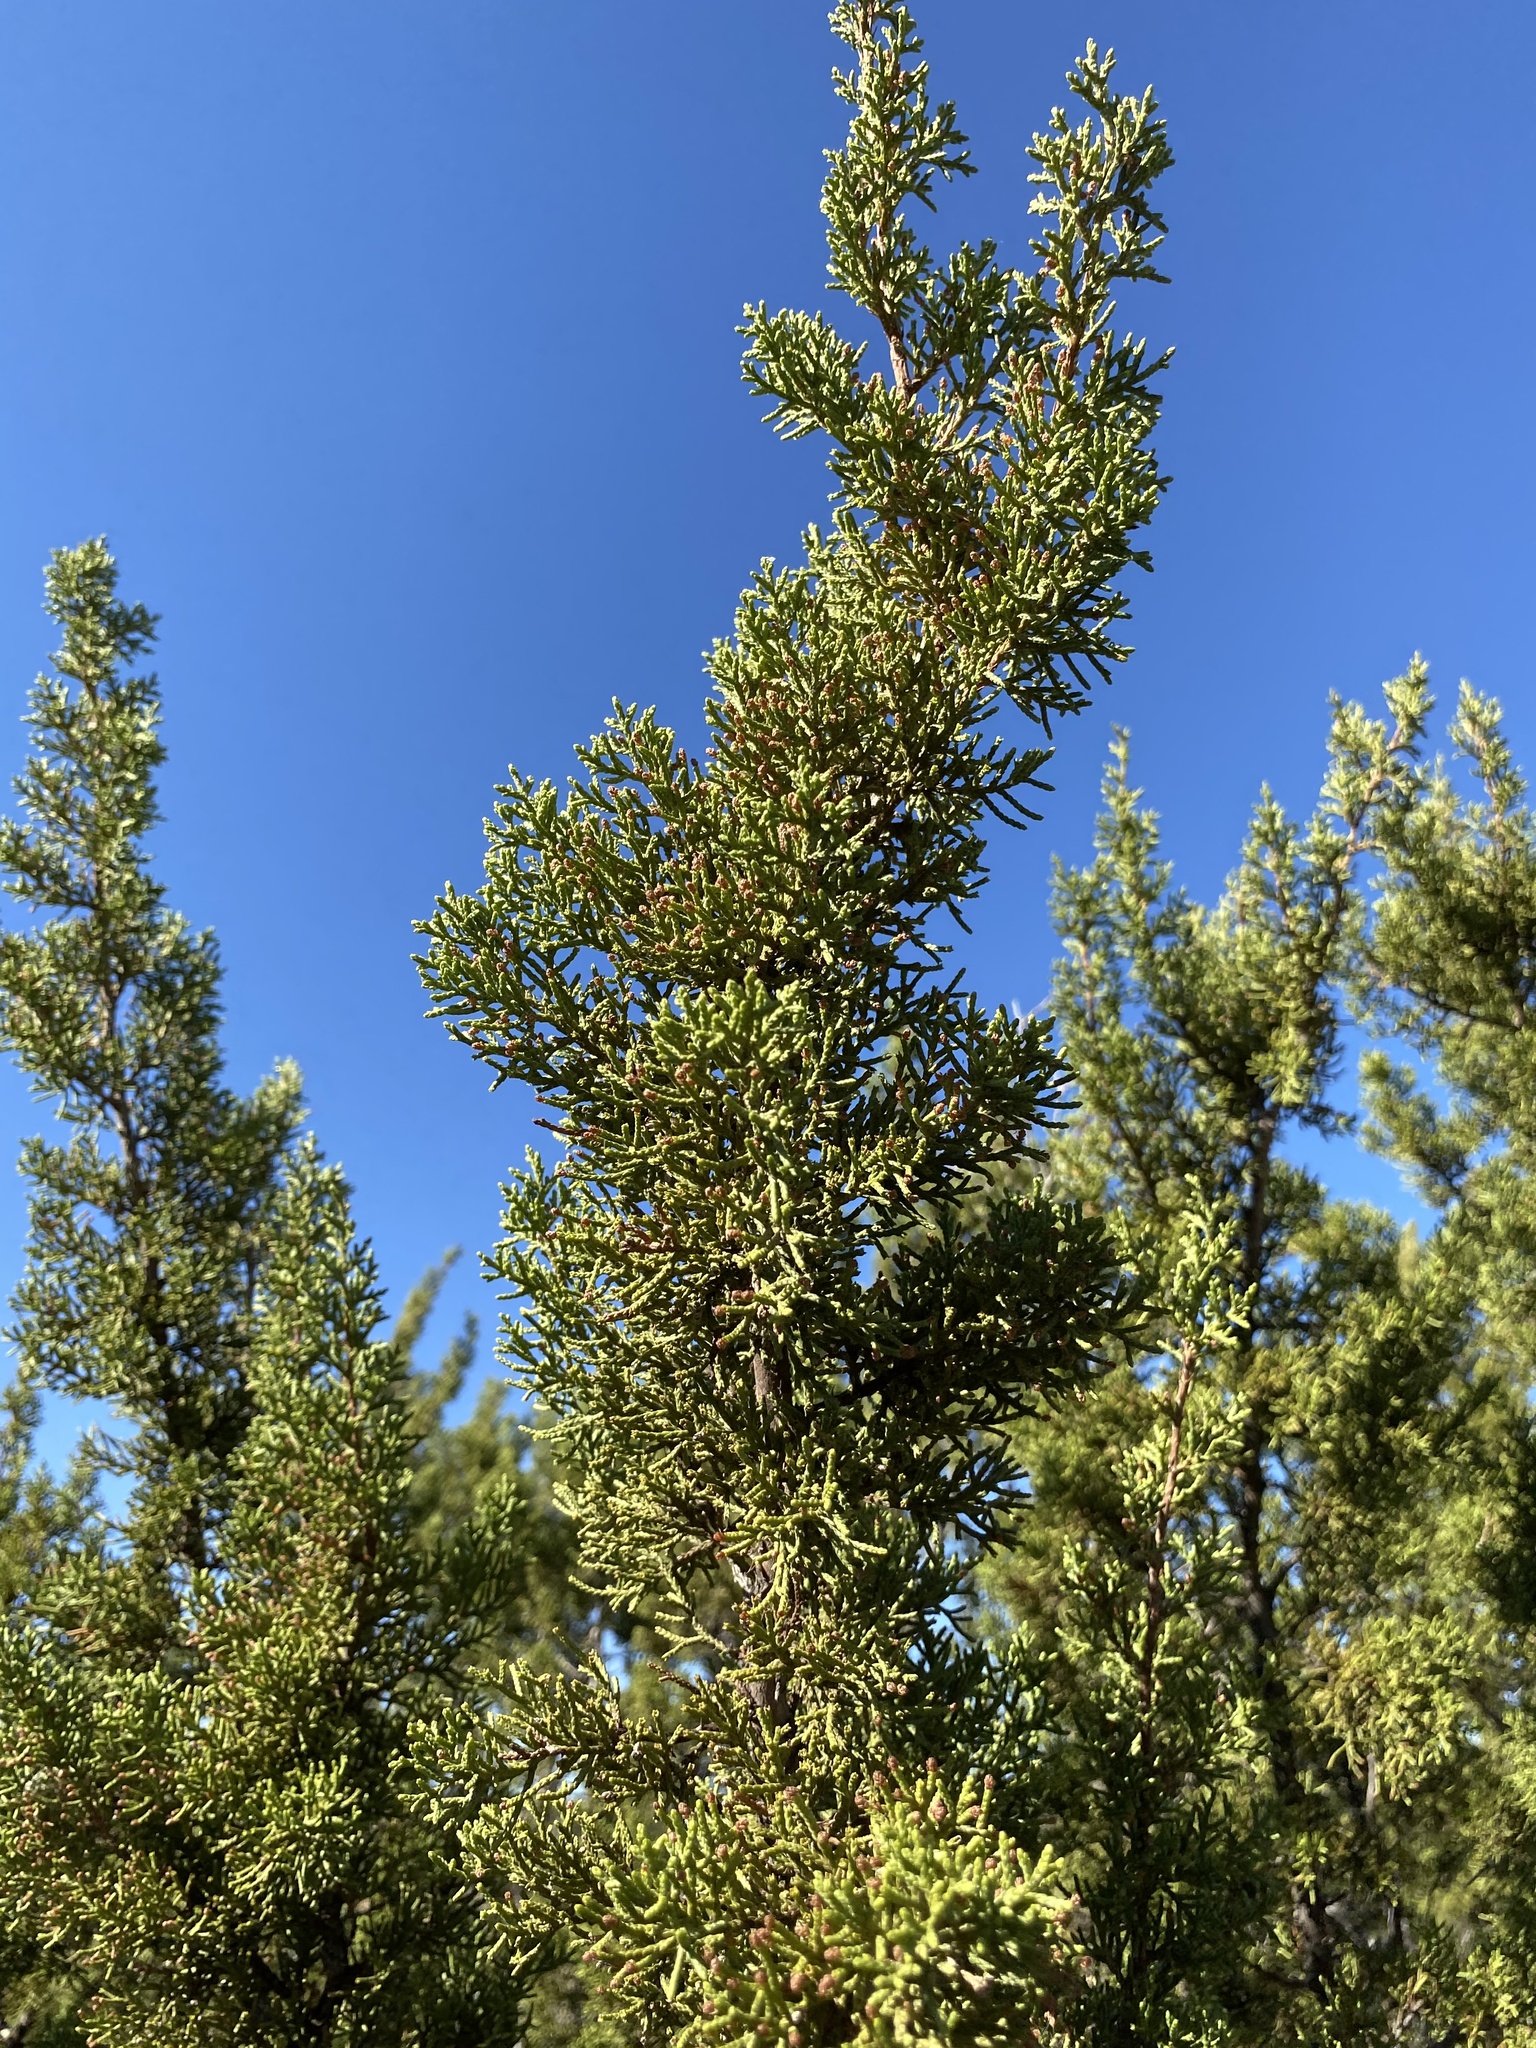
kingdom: Plantae
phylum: Tracheophyta
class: Pinopsida
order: Pinales
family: Cupressaceae
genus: Juniperus
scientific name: Juniperus pinchotii
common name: Pinchot juniper
